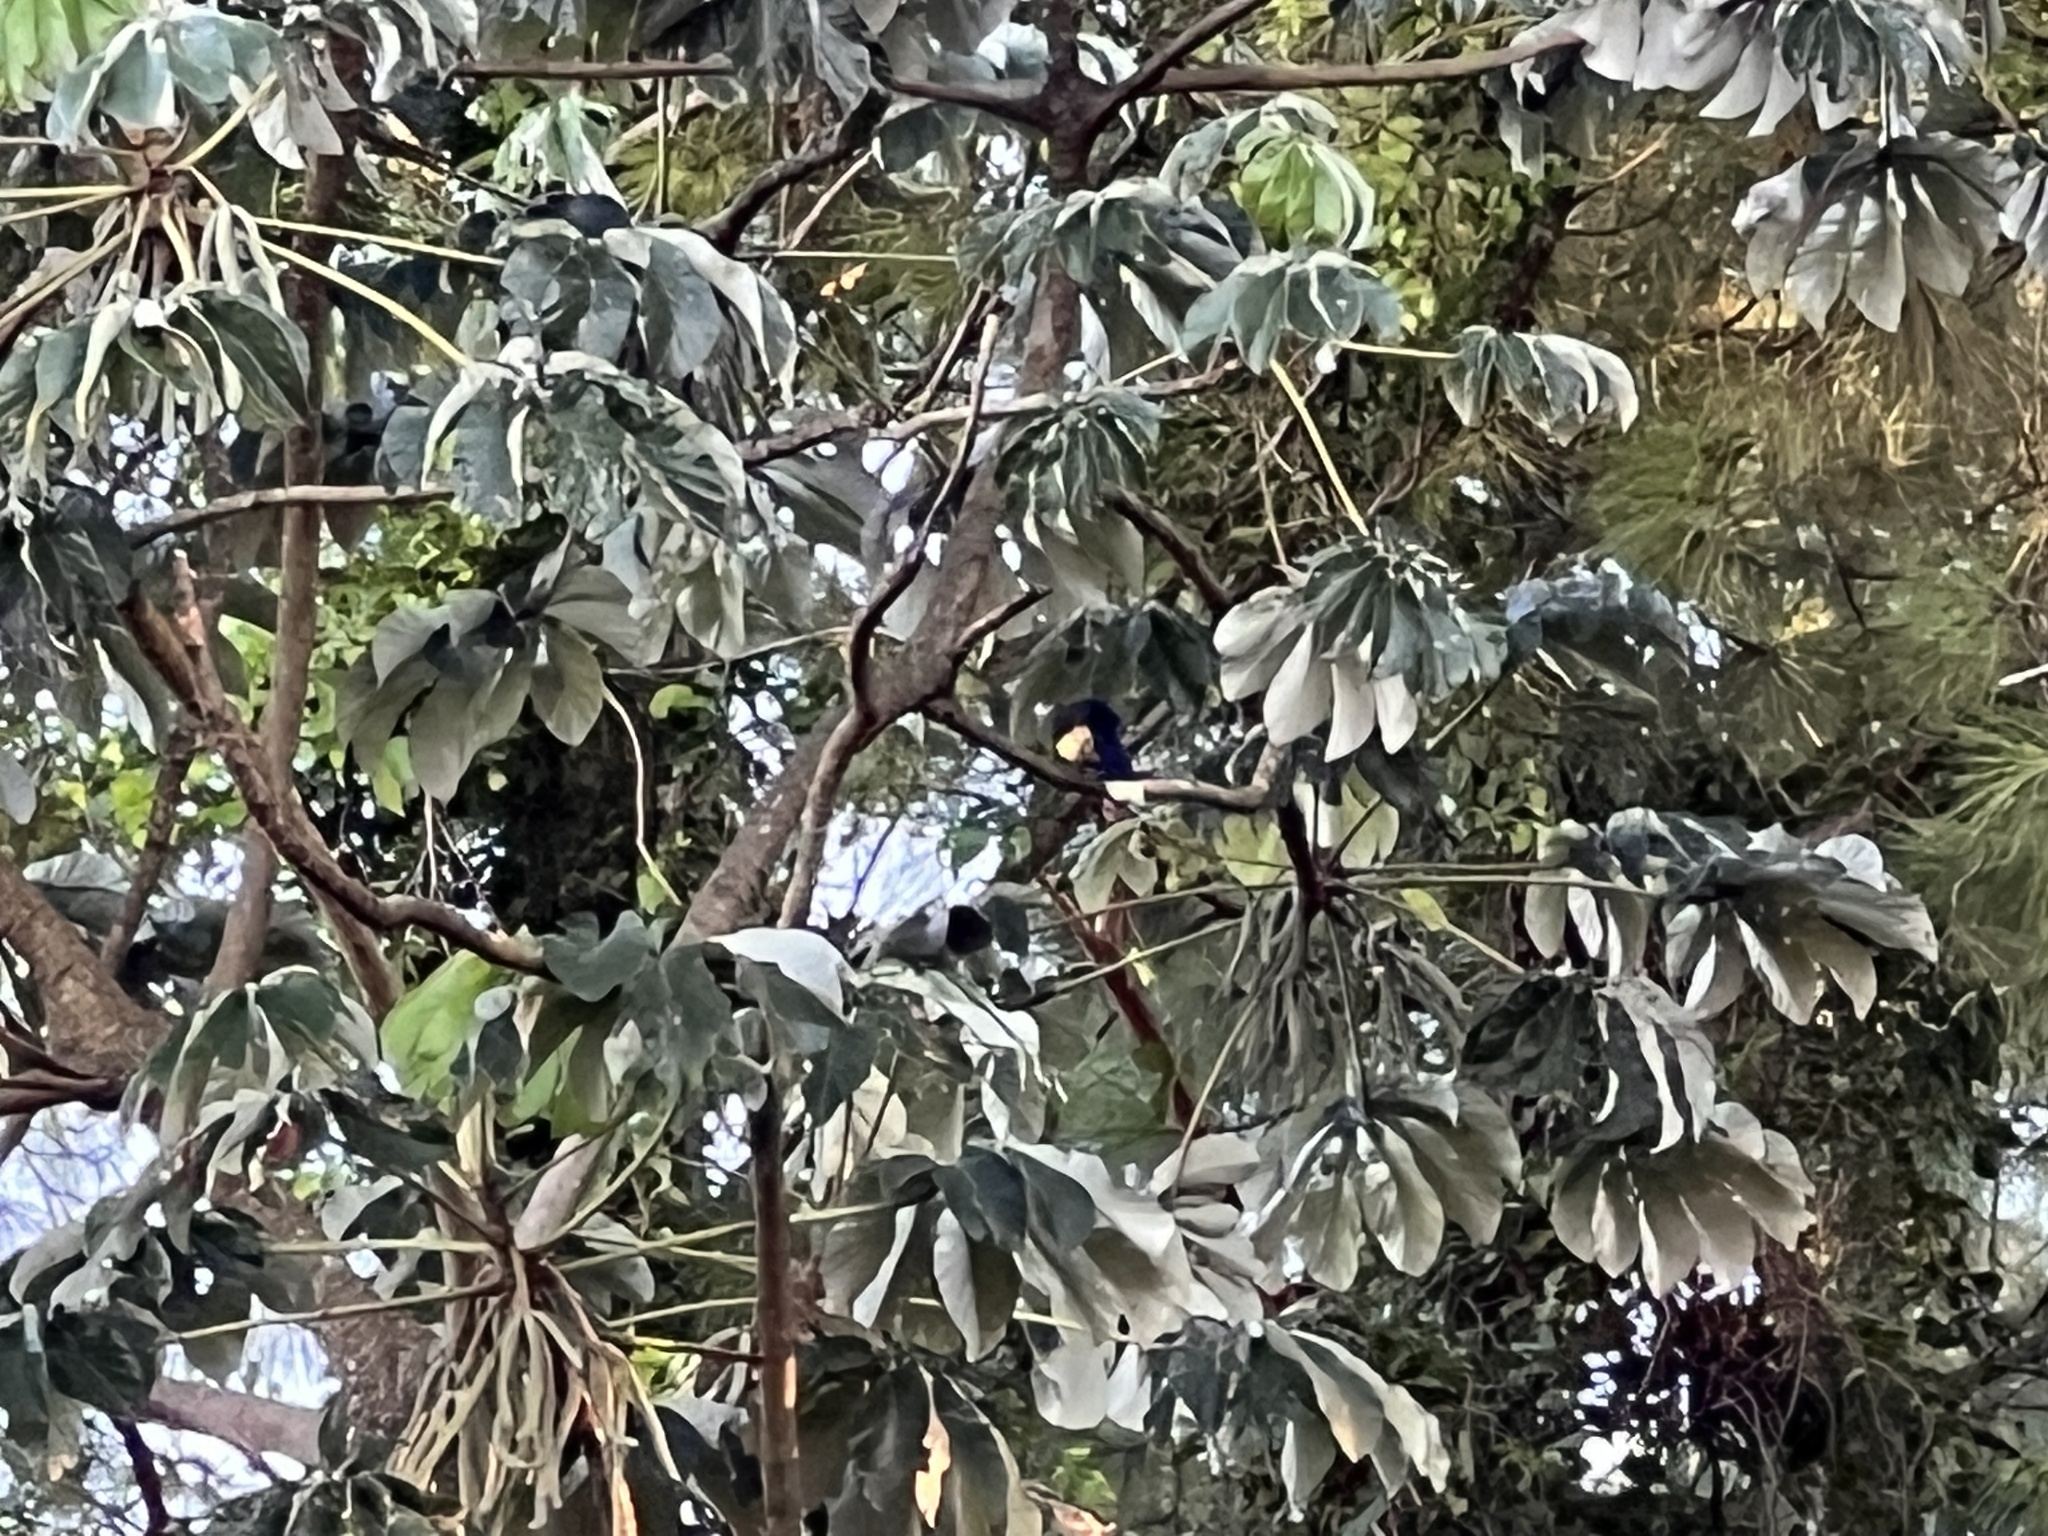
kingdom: Animalia
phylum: Chordata
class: Aves
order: Passeriformes
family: Corvidae
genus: Cyanocorax
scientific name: Cyanocorax chrysops
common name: Plush-crested jay
